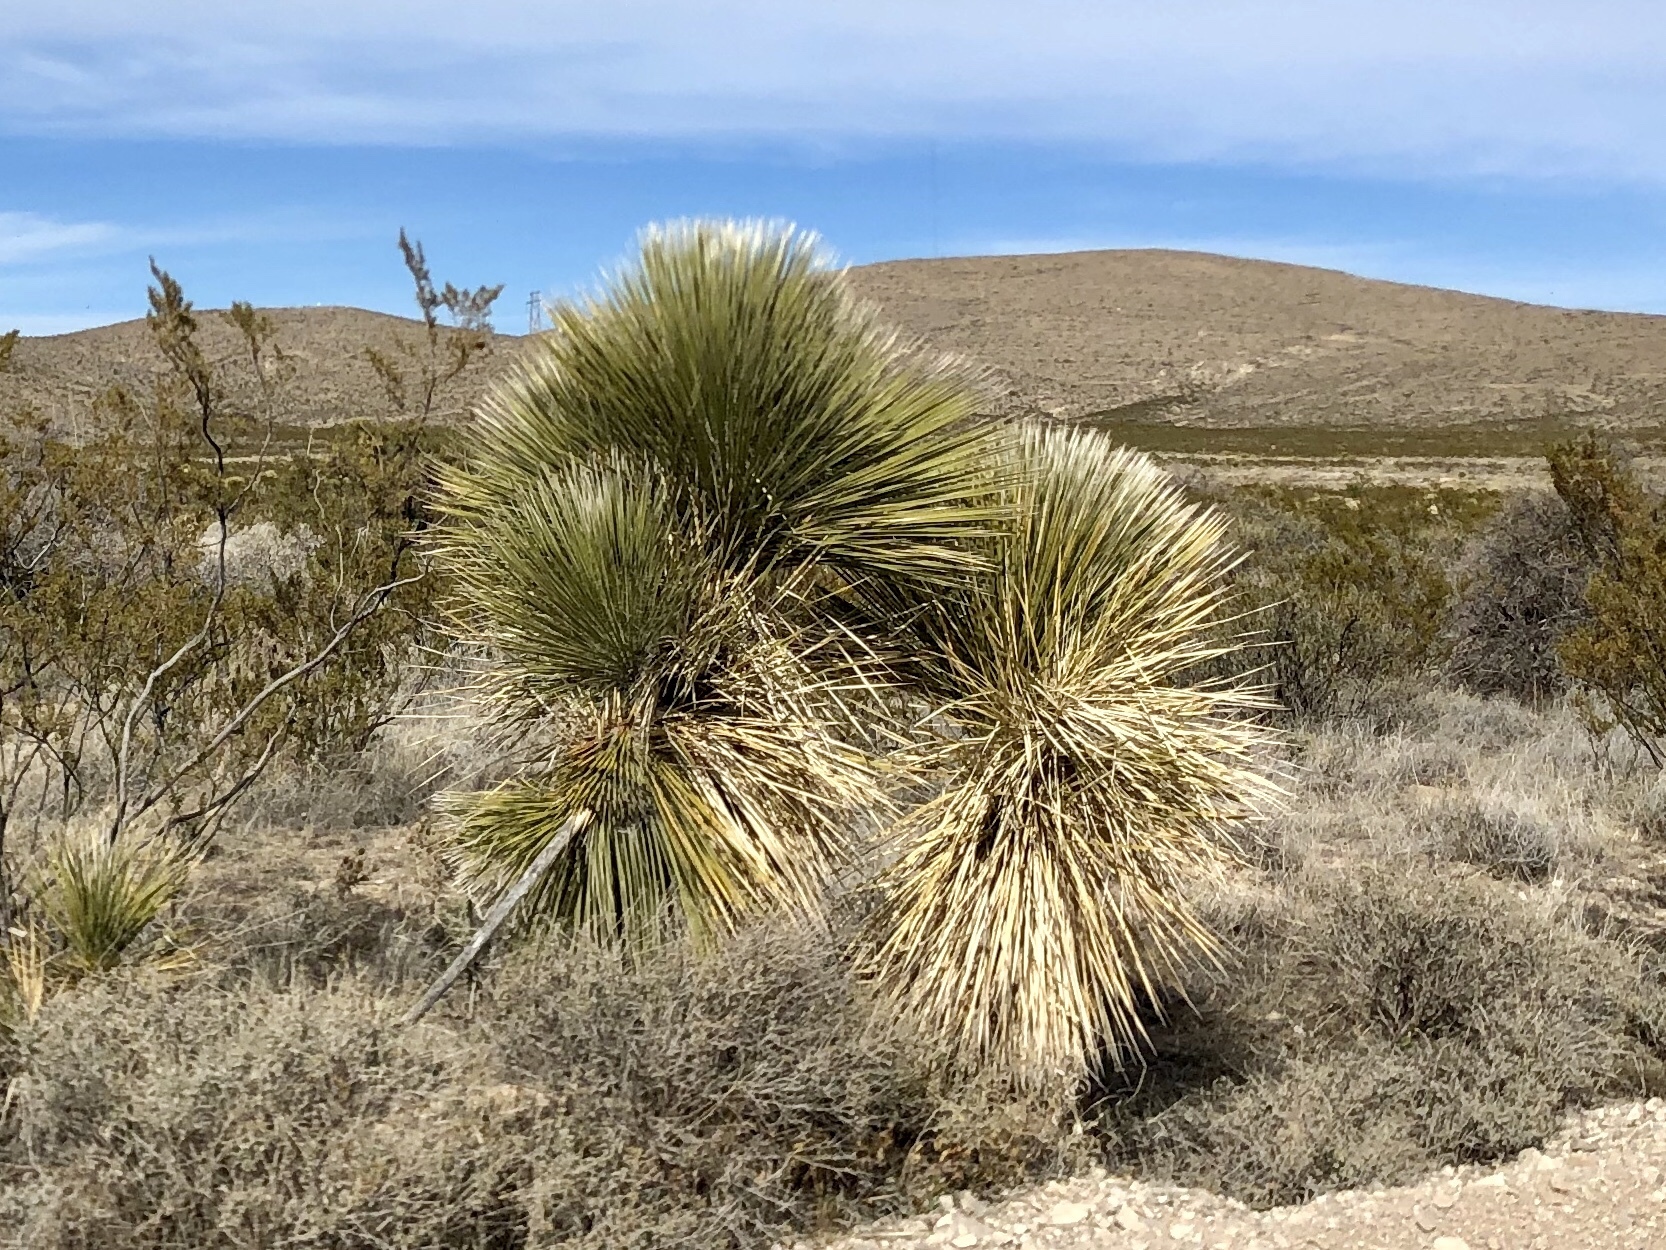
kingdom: Plantae
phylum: Tracheophyta
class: Liliopsida
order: Asparagales
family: Asparagaceae
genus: Yucca
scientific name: Yucca elata
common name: Palmella
